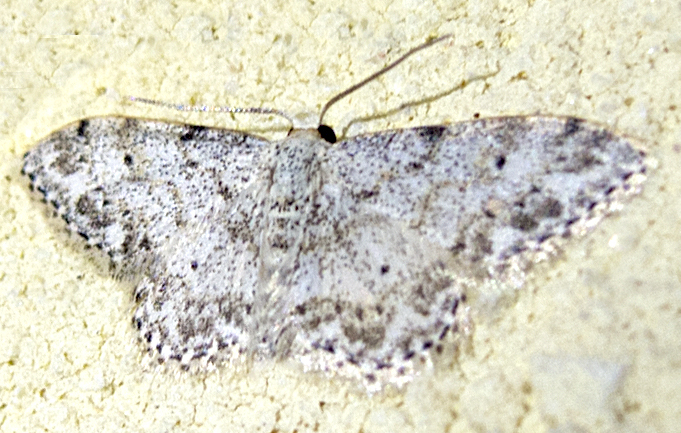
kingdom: Animalia
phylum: Arthropoda
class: Insecta
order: Lepidoptera
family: Geometridae
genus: Idaea
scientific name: Idaea camparia
